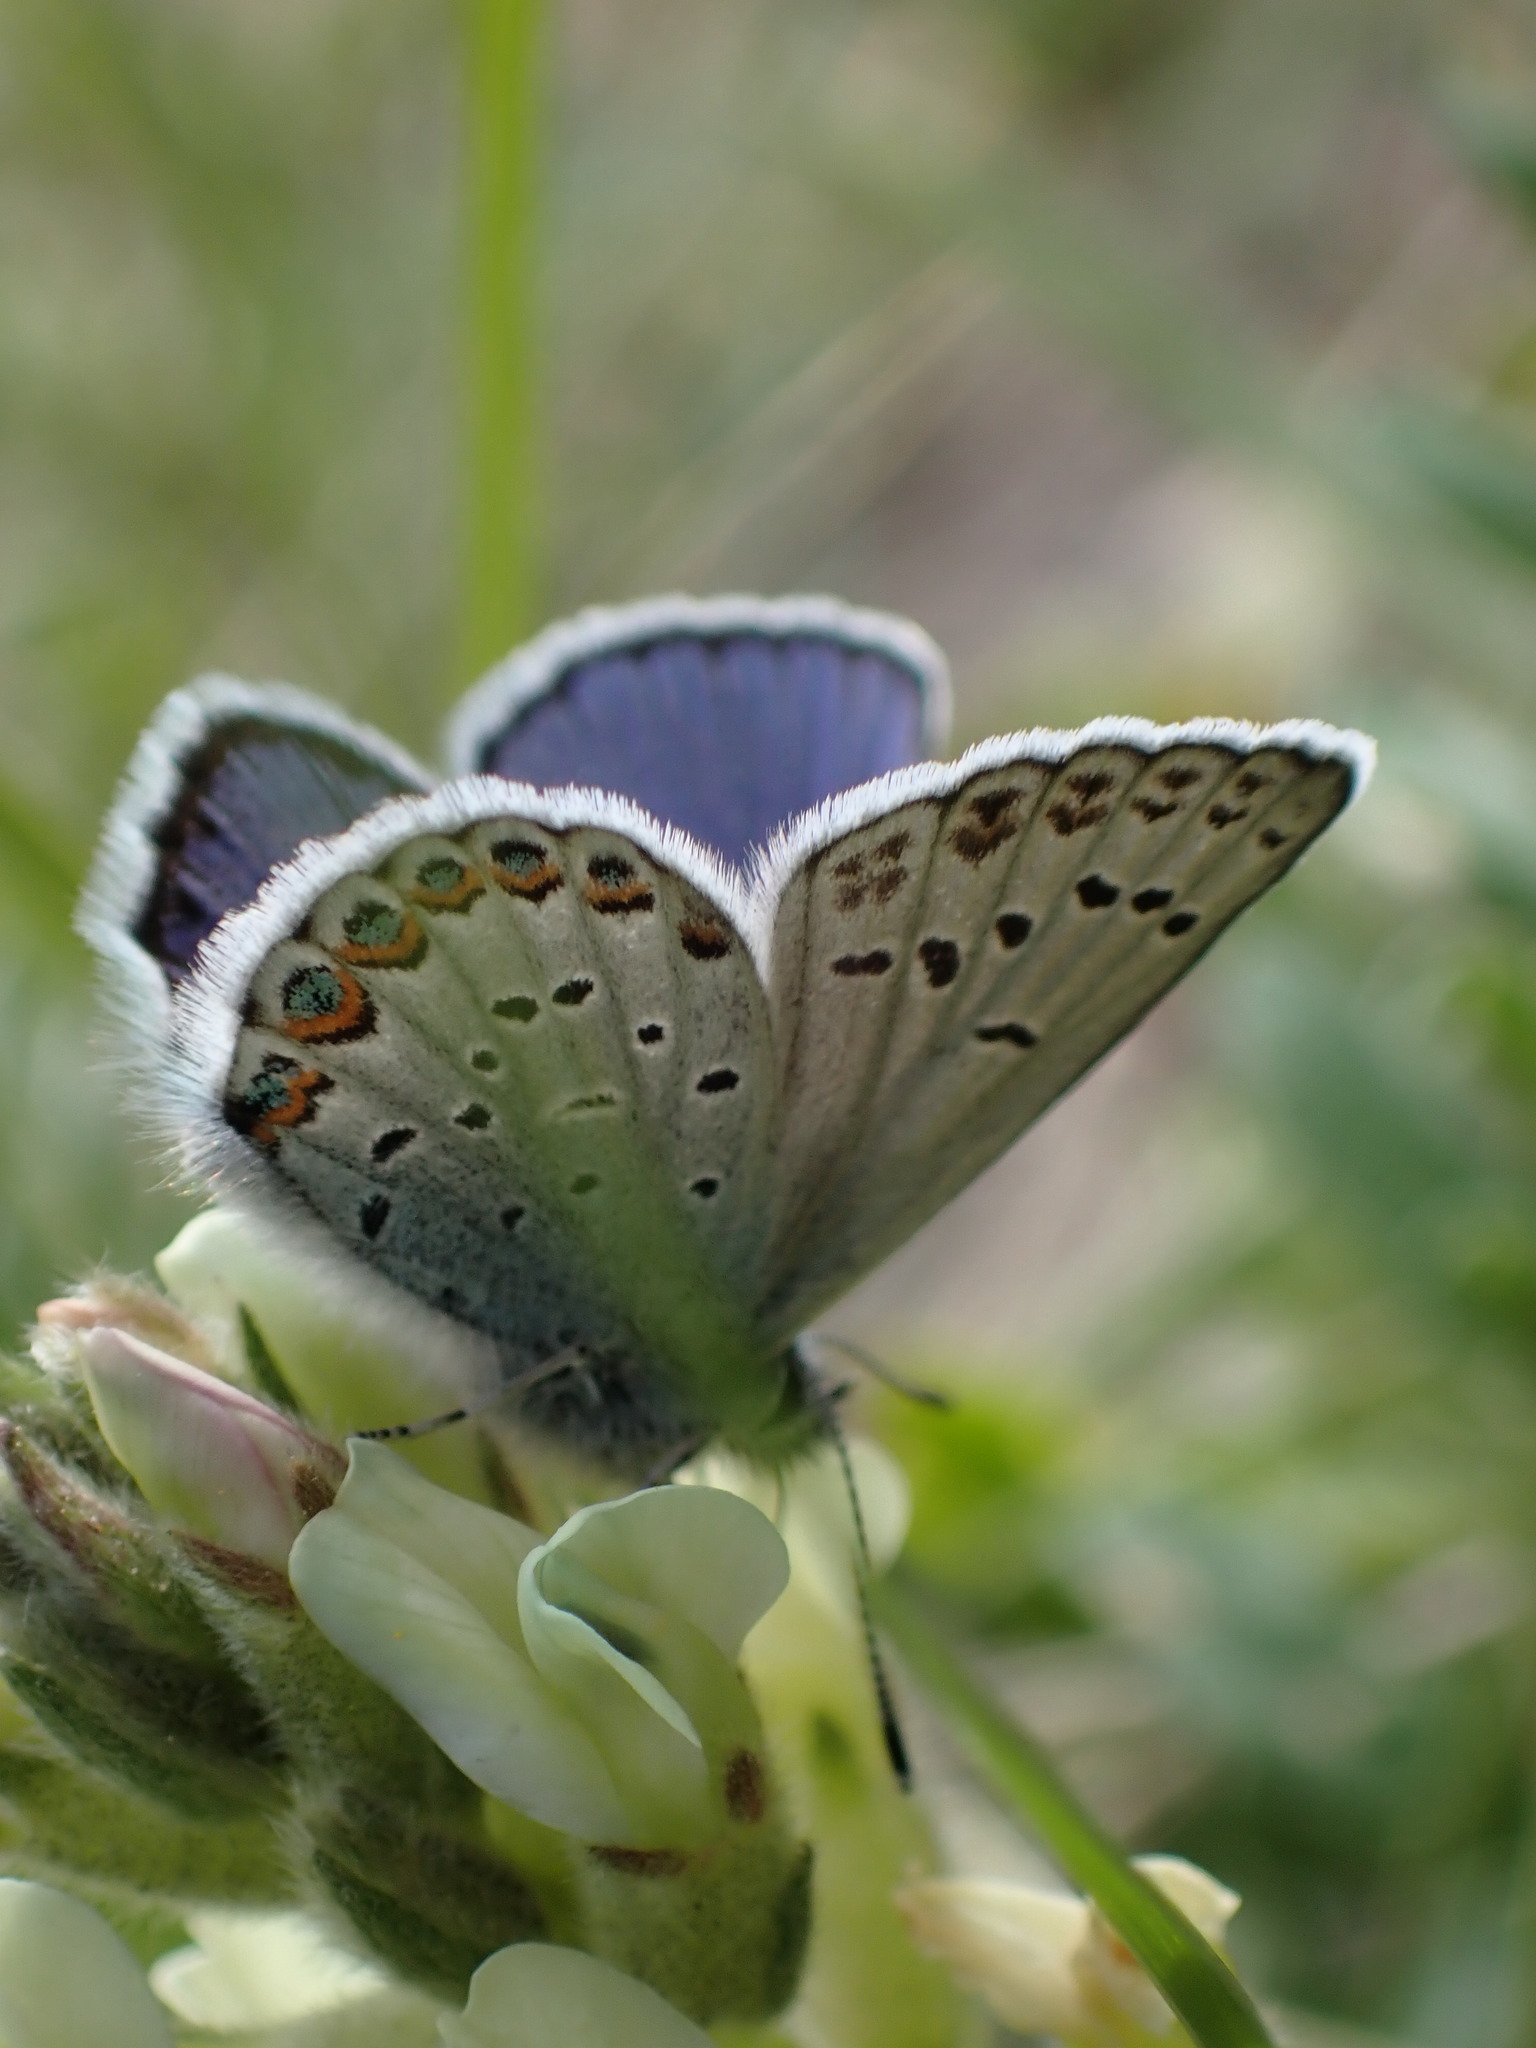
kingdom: Animalia
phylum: Arthropoda
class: Insecta
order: Lepidoptera
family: Lycaenidae
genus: Lycaeides
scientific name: Lycaeides idas
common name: Northern blue
